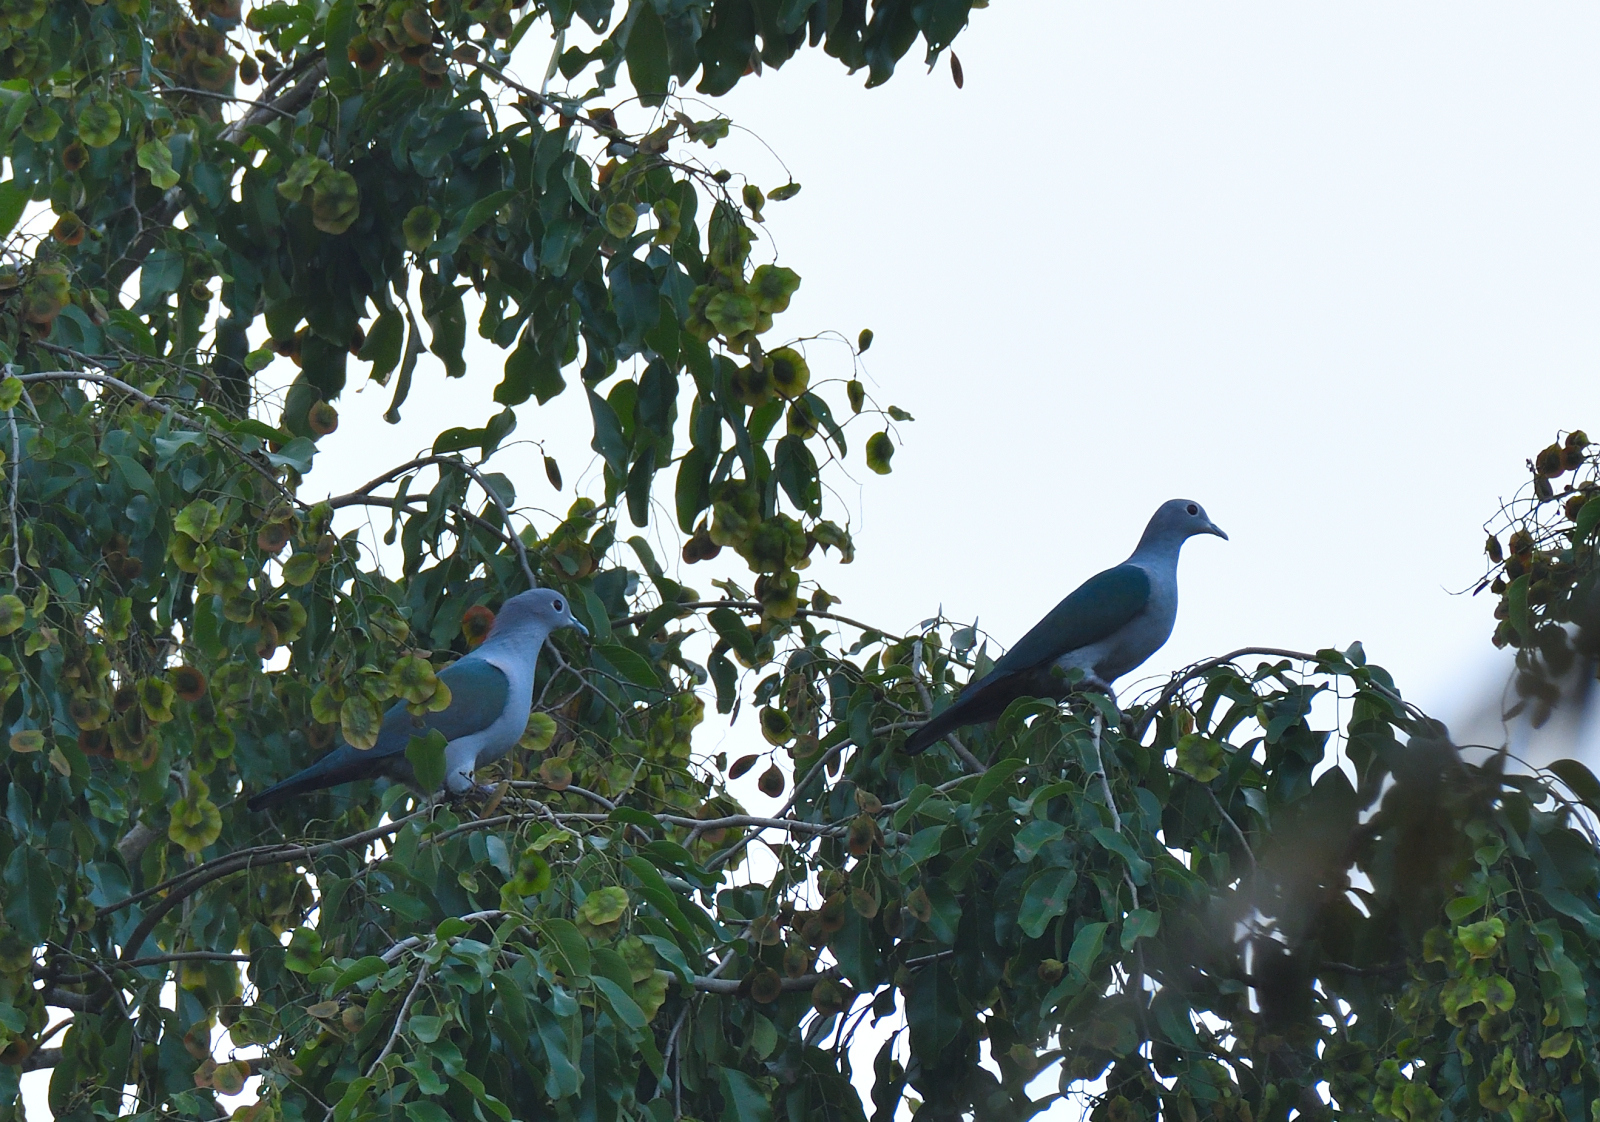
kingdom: Animalia
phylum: Chordata
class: Aves
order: Columbiformes
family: Columbidae
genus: Ducula
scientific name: Ducula aenea
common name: Green imperial pigeon
